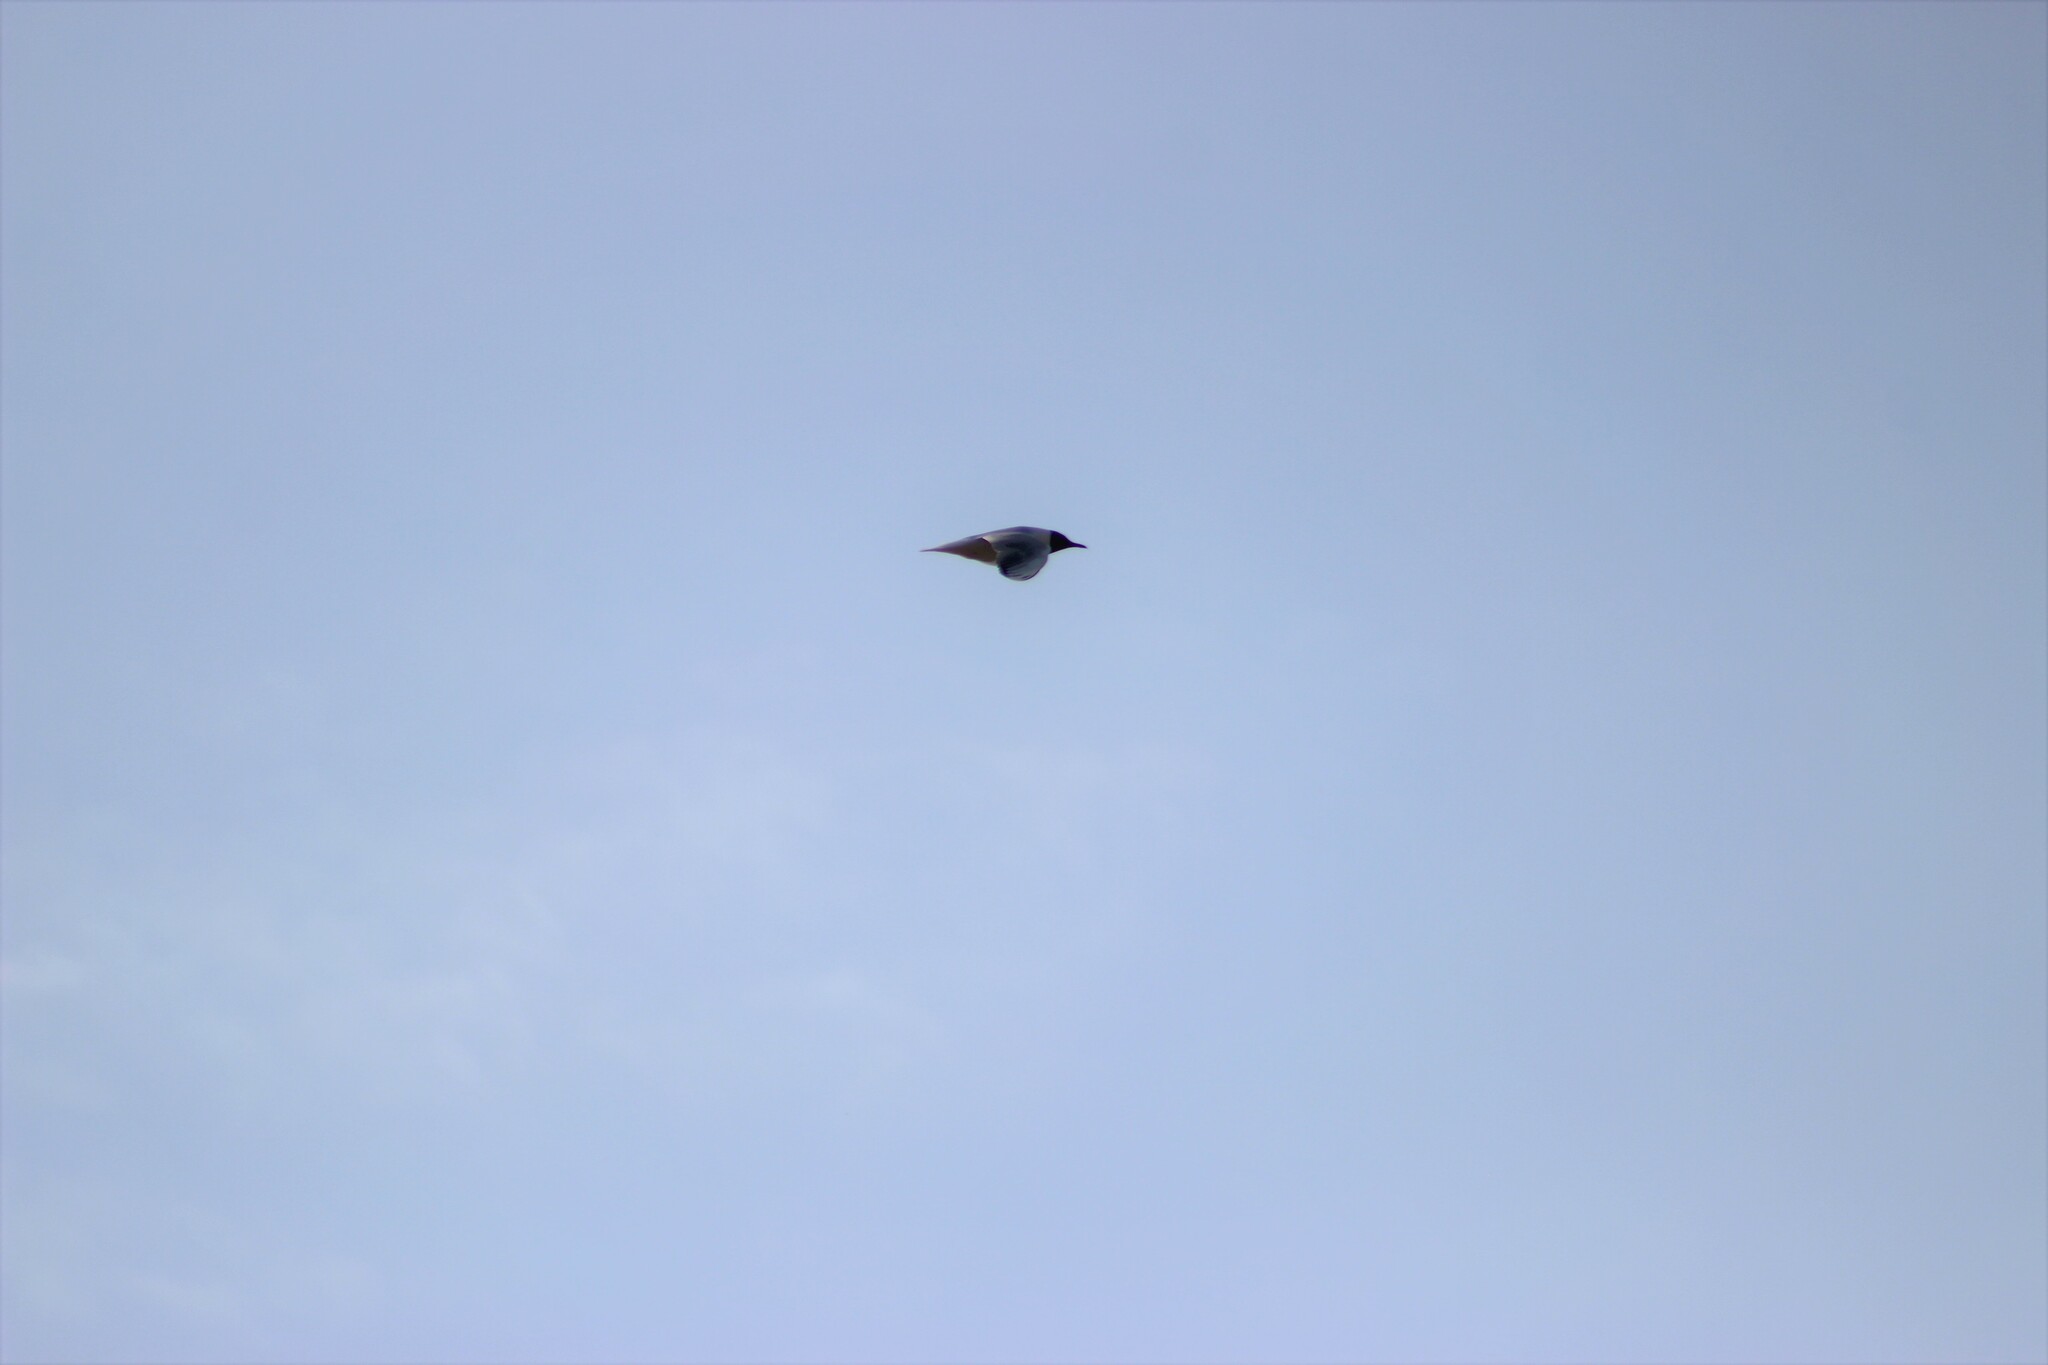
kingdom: Animalia
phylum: Chordata
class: Aves
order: Charadriiformes
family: Laridae
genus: Chroicocephalus
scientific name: Chroicocephalus ridibundus
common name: Black-headed gull
